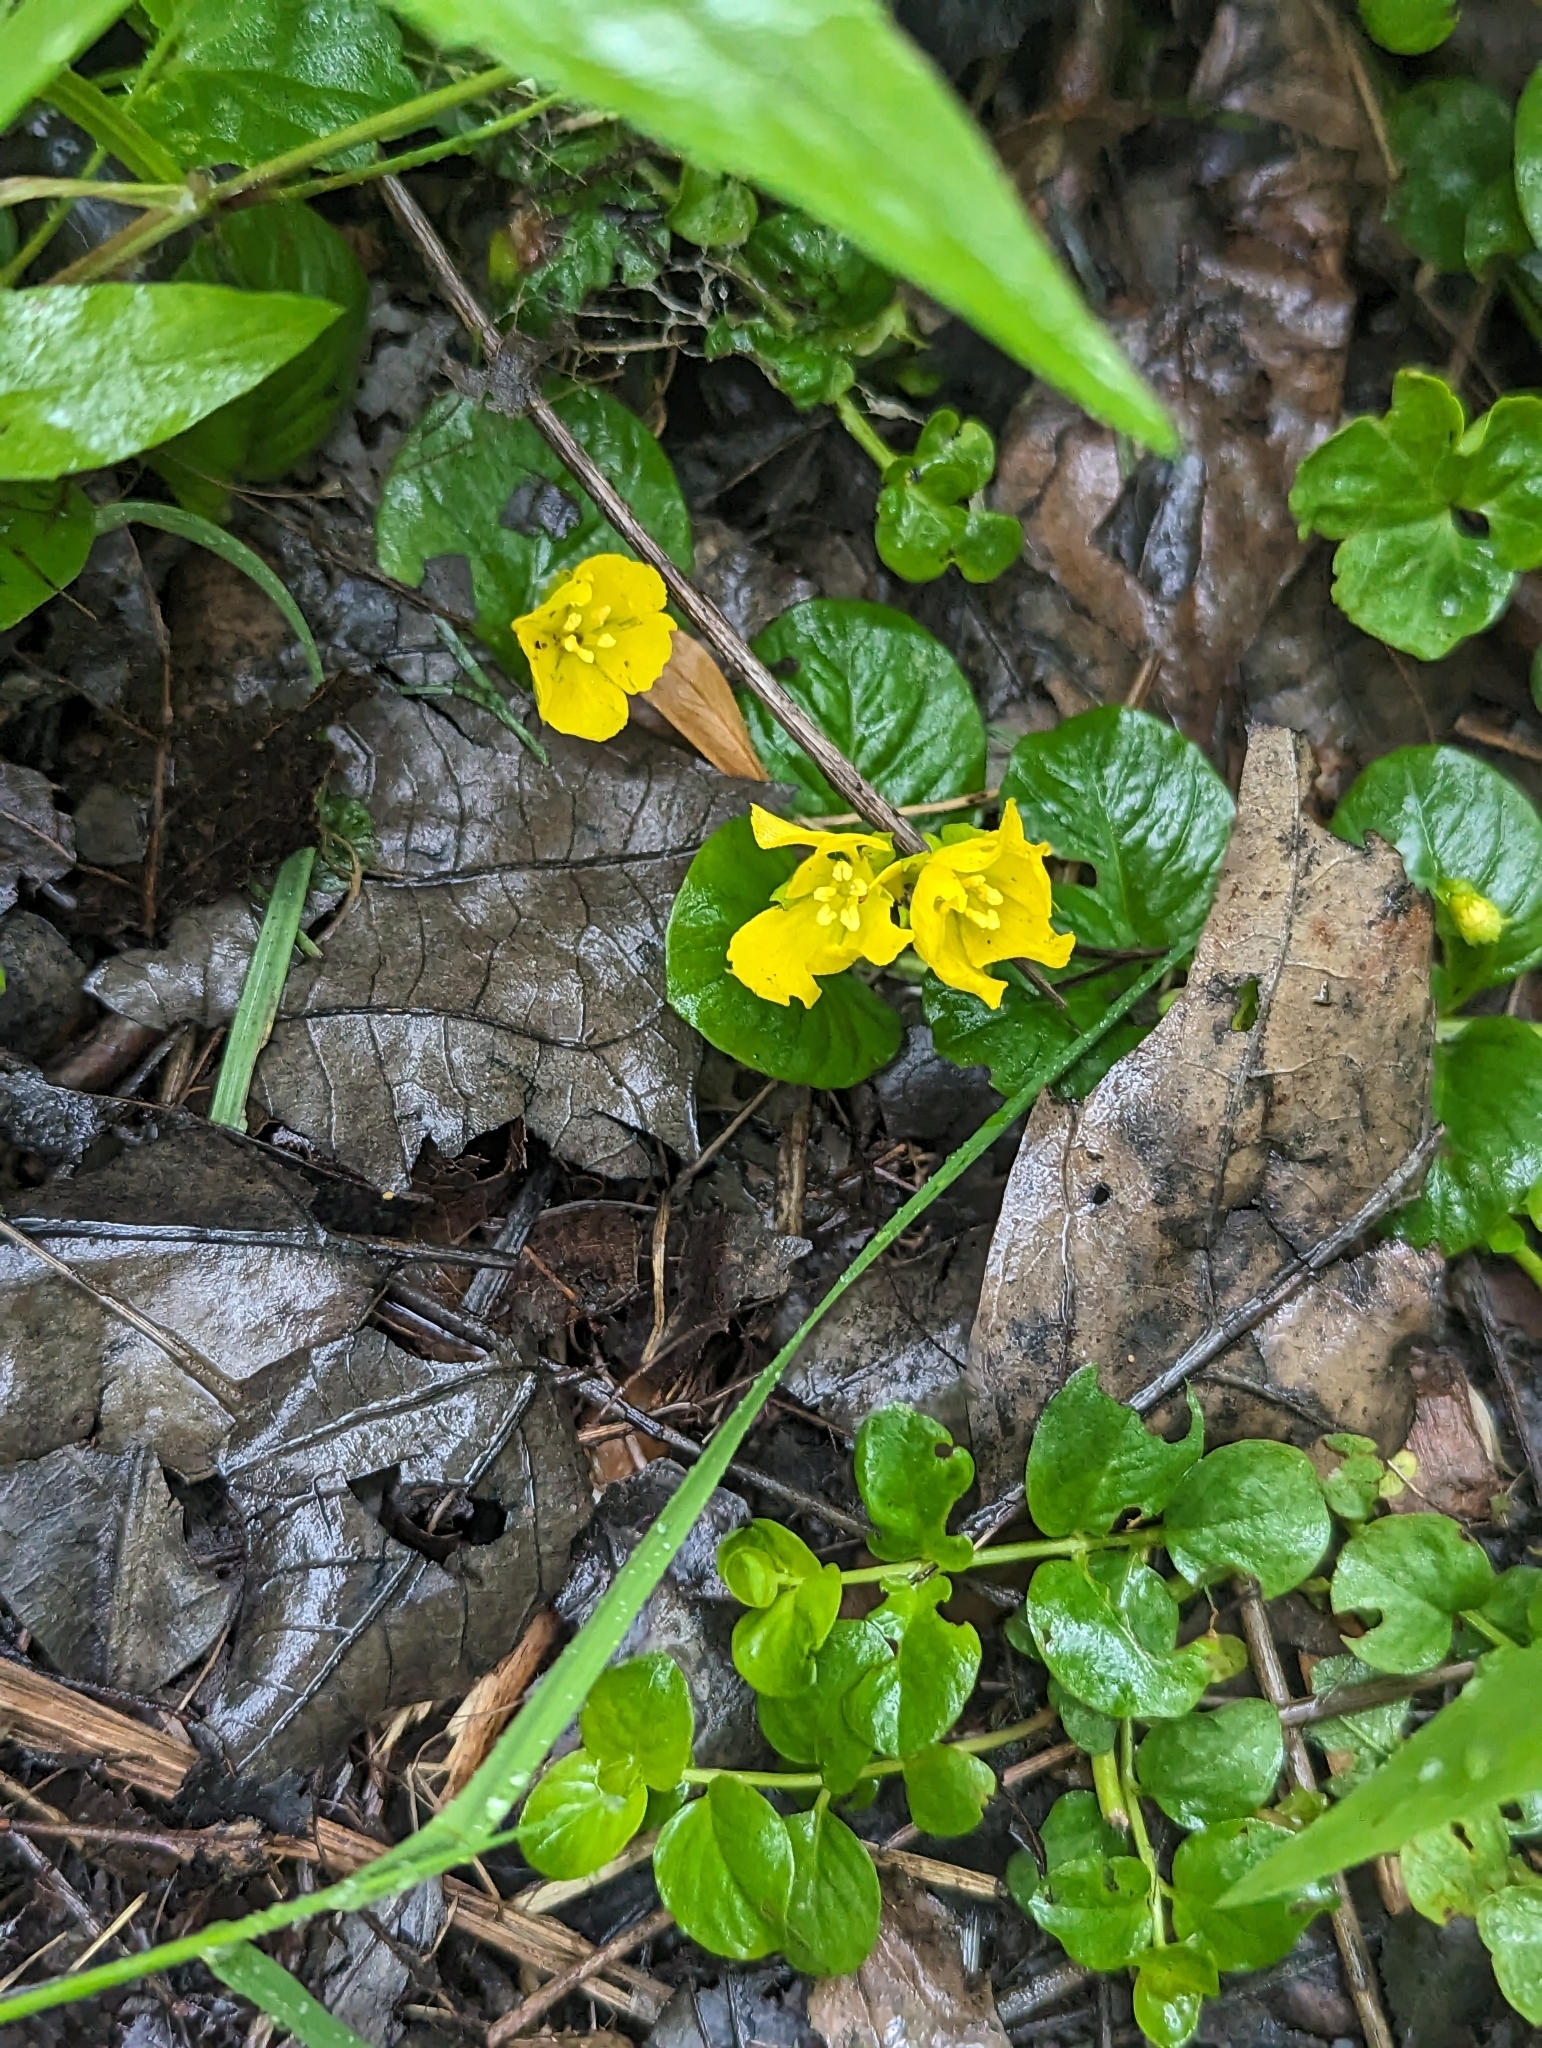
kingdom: Plantae
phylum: Tracheophyta
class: Magnoliopsida
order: Ericales
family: Primulaceae
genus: Lysimachia
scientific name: Lysimachia nummularia
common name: Moneywort
